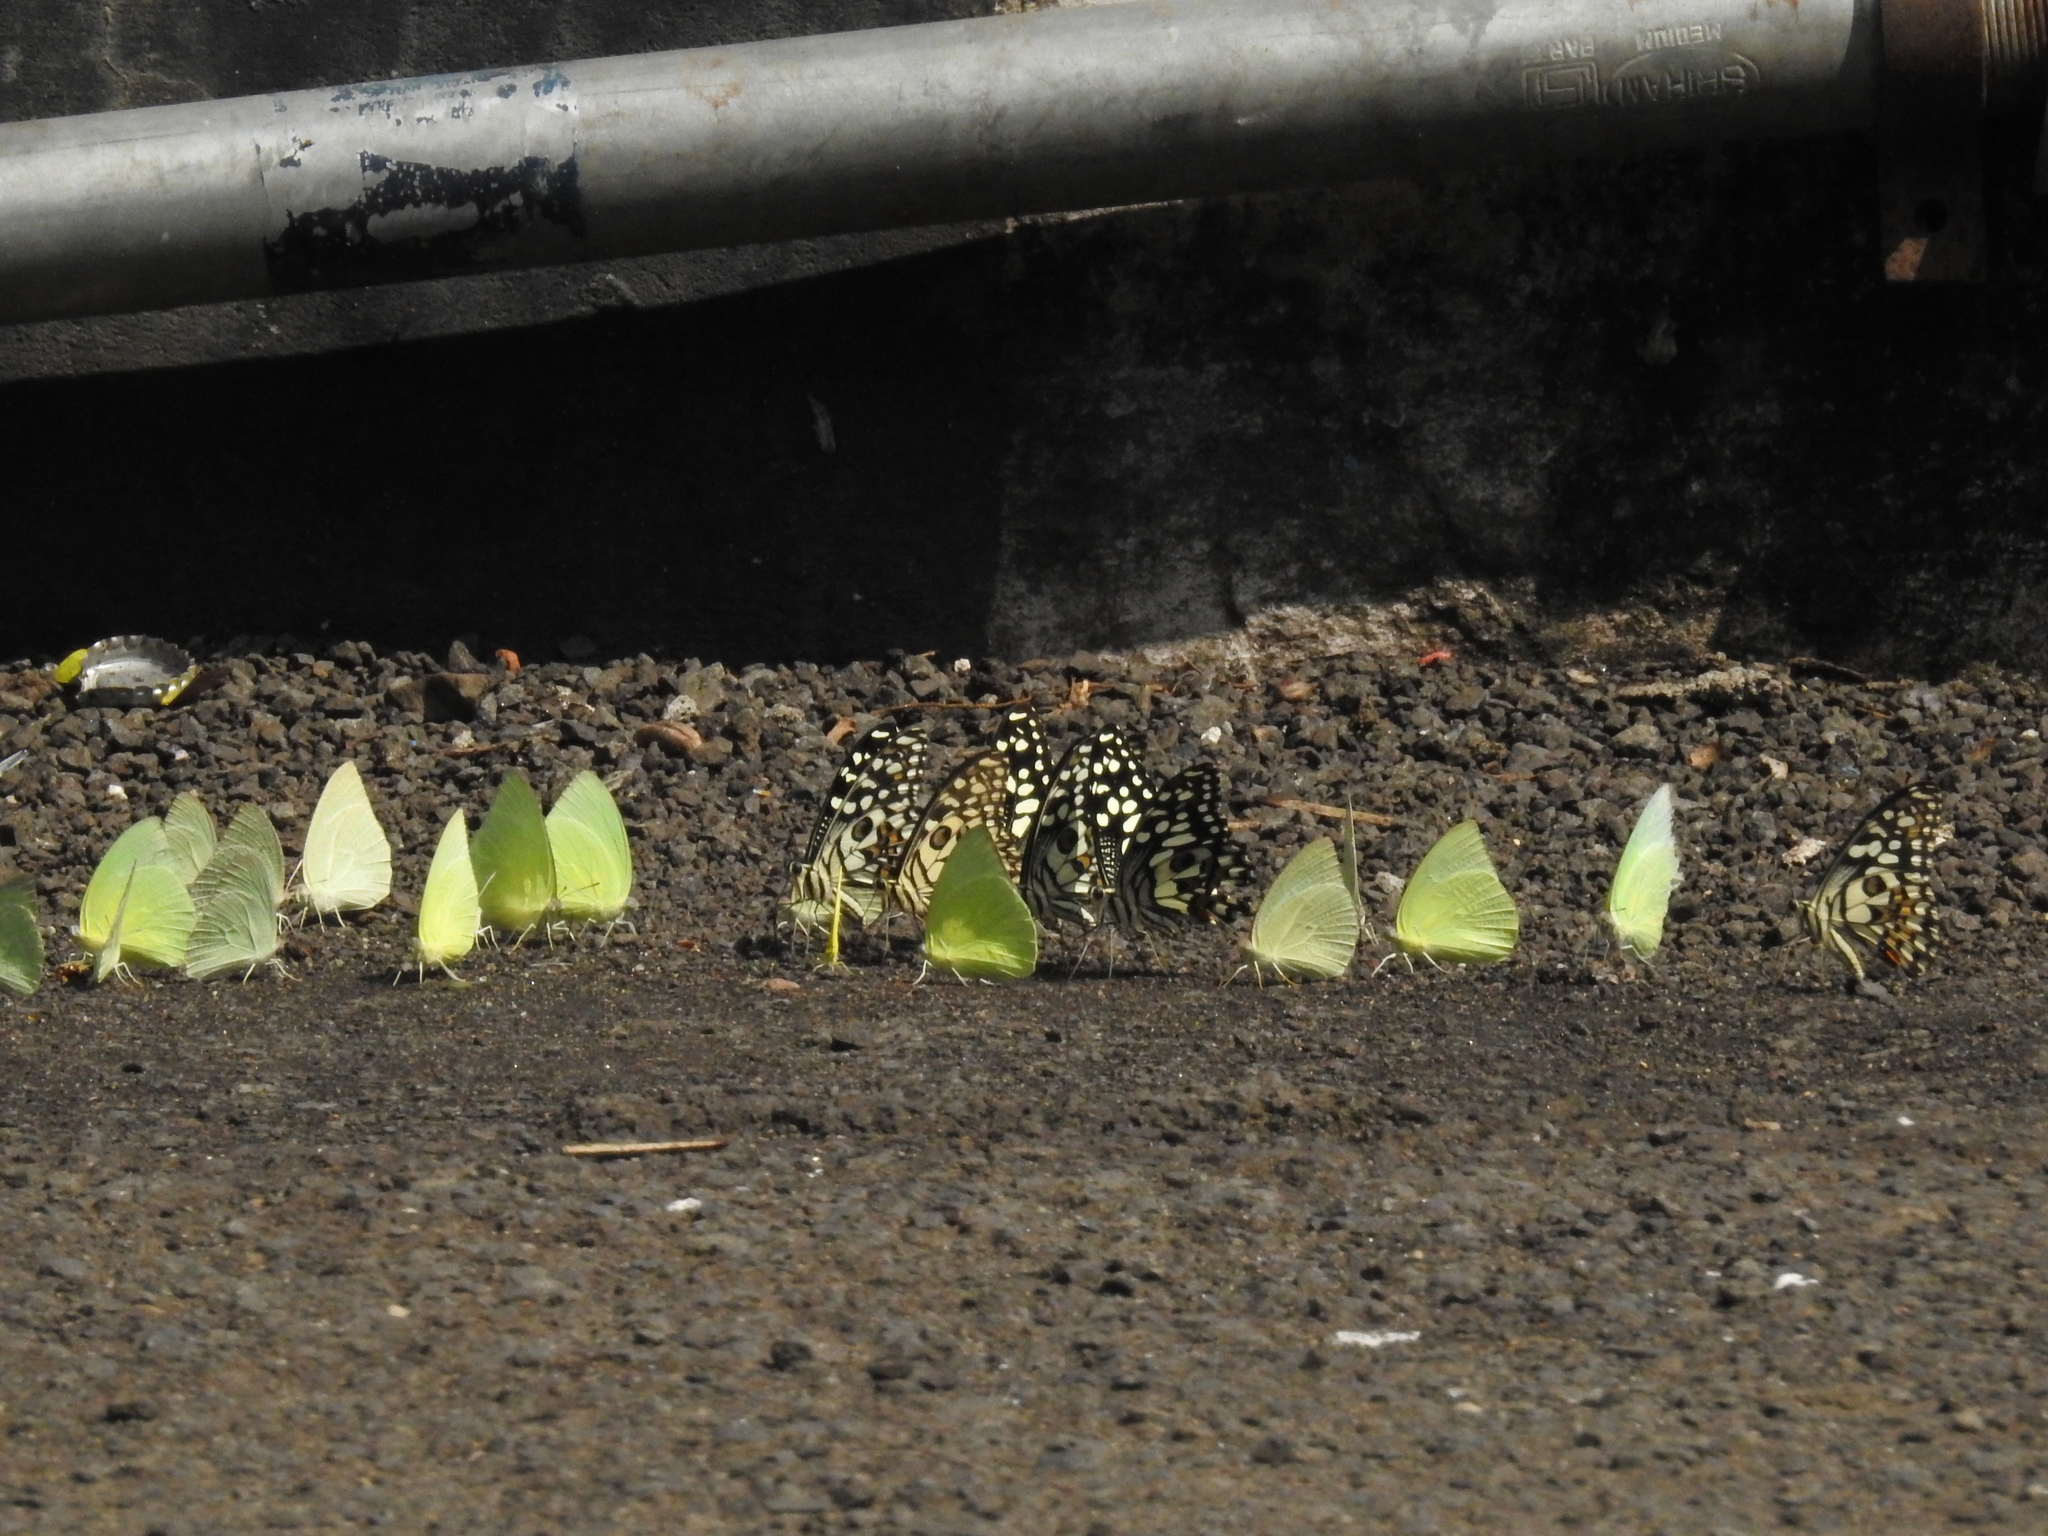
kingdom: Animalia
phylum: Arthropoda
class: Insecta
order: Lepidoptera
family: Pieridae
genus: Catopsilia
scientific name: Catopsilia pomona
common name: Common emigrant
